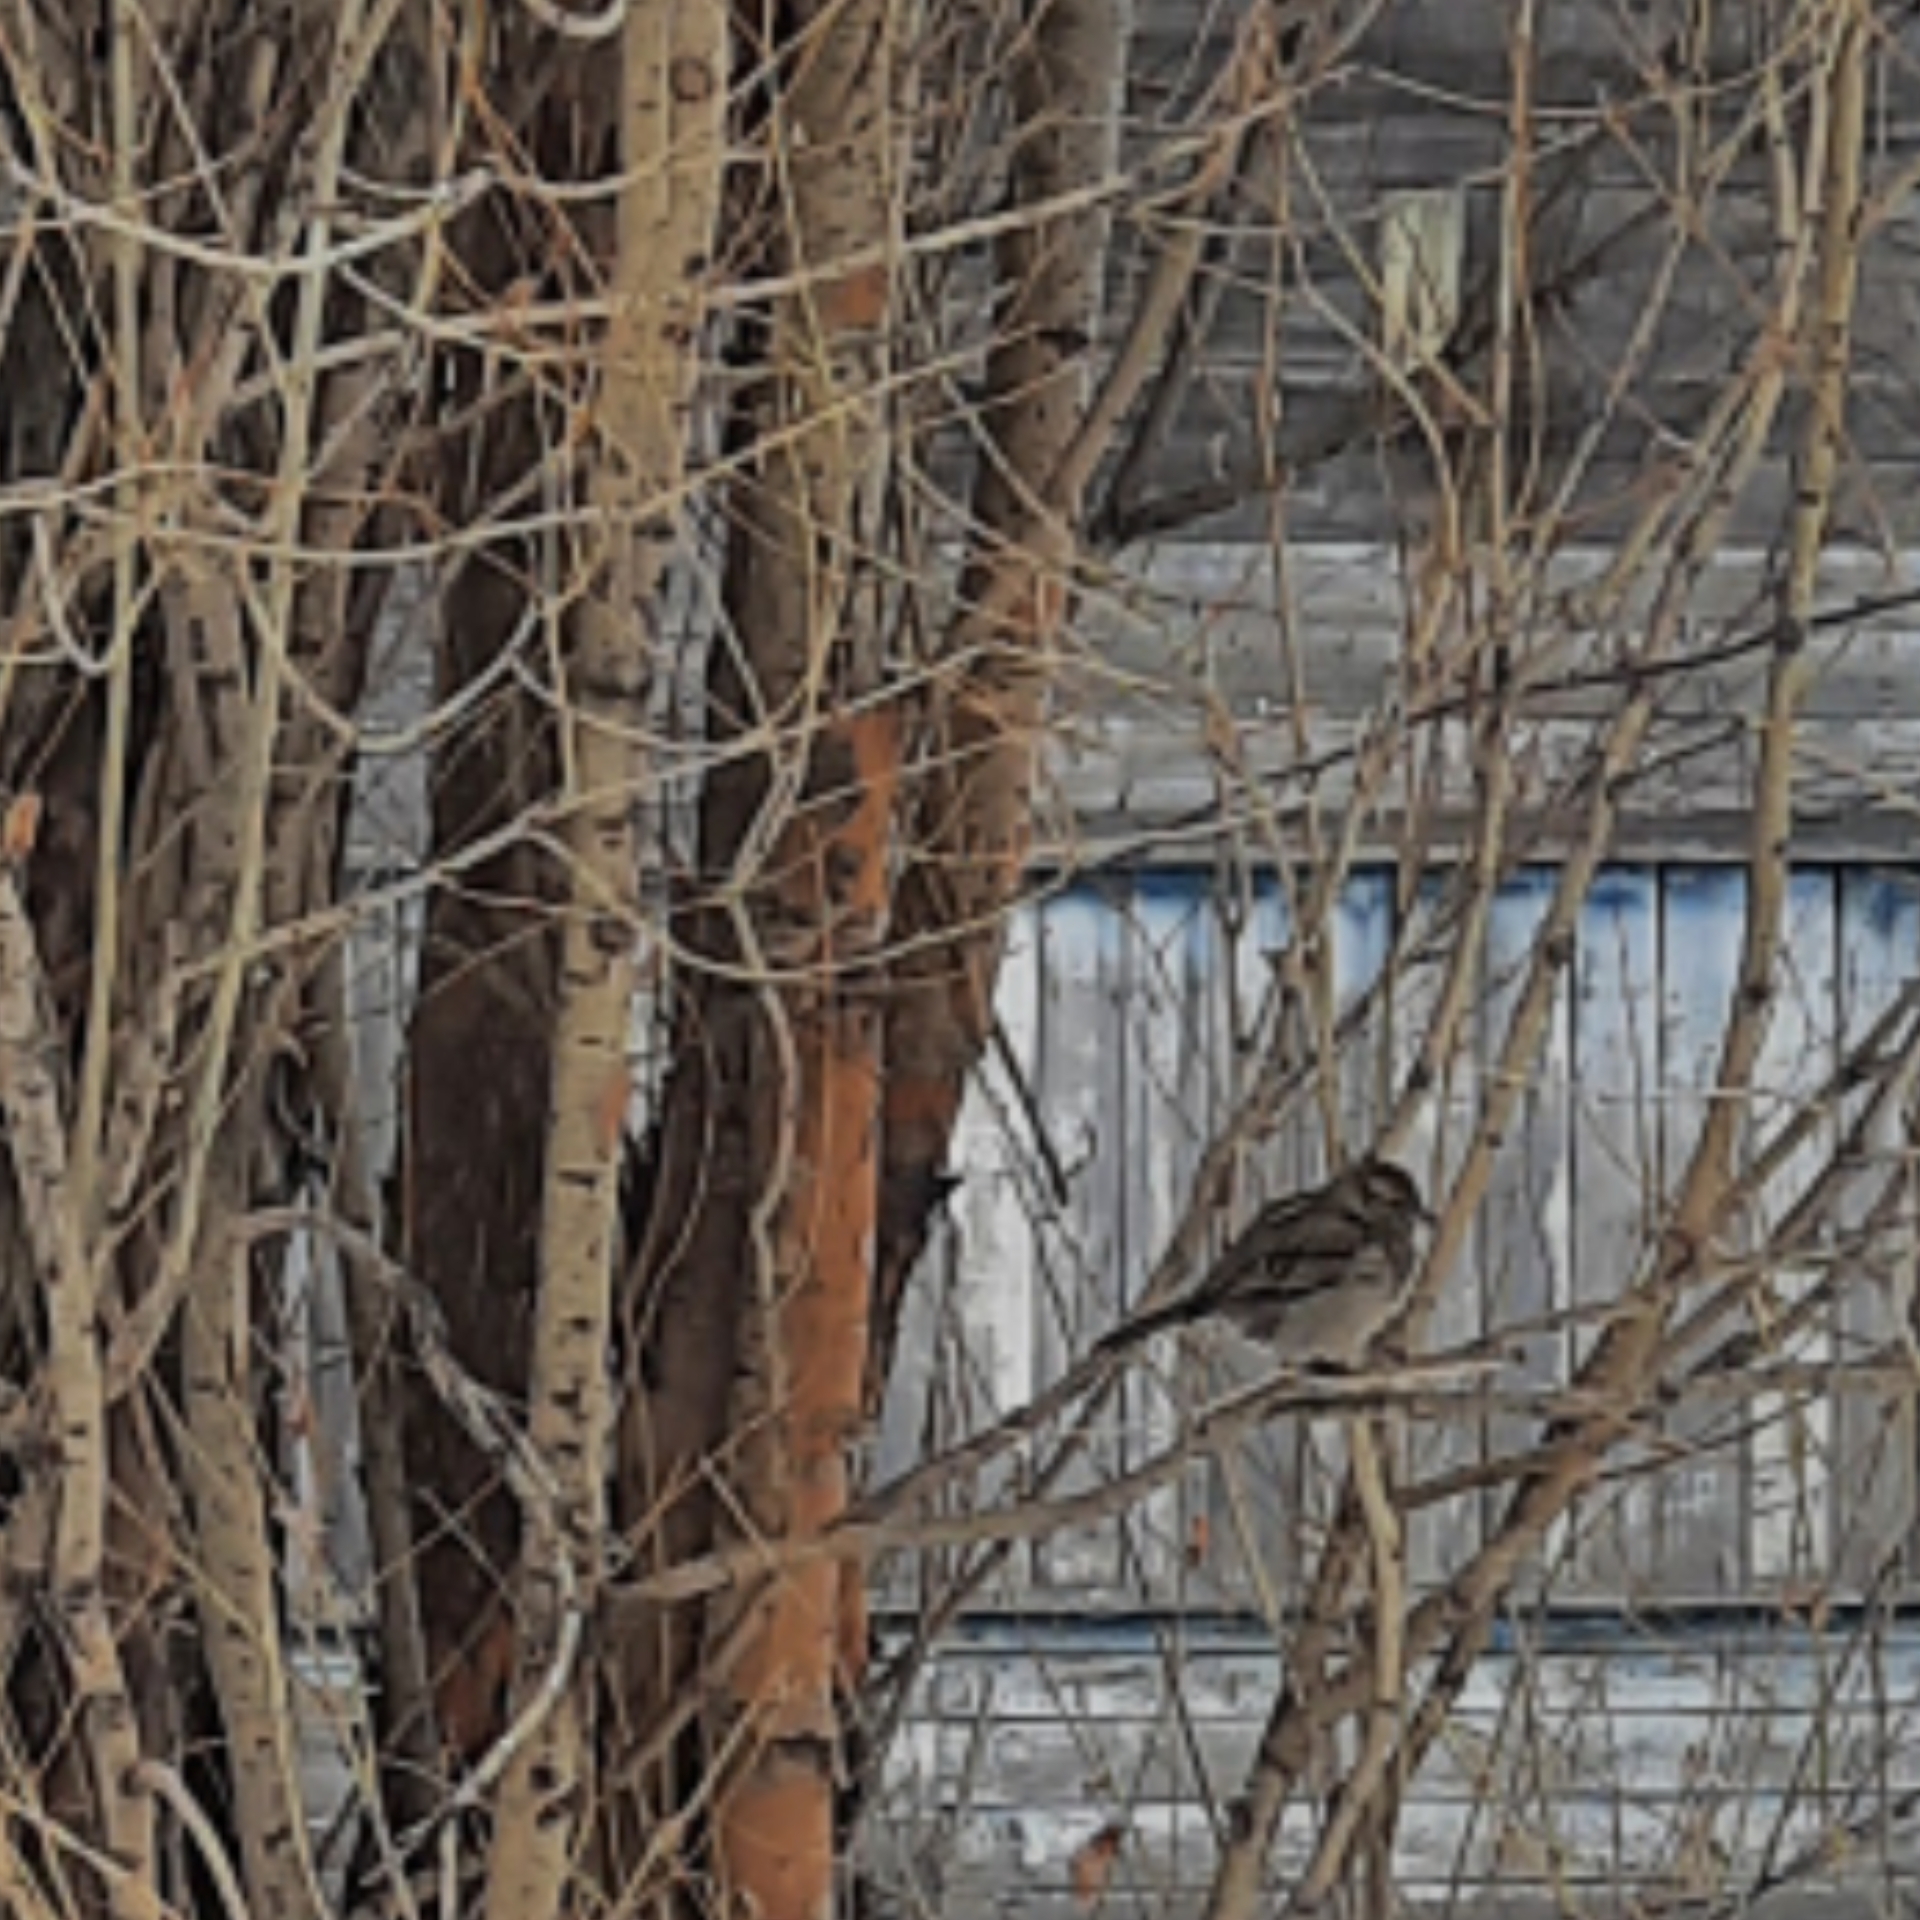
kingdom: Animalia
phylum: Chordata
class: Aves
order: Passeriformes
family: Passeridae
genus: Passer
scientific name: Passer domesticus
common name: House sparrow
